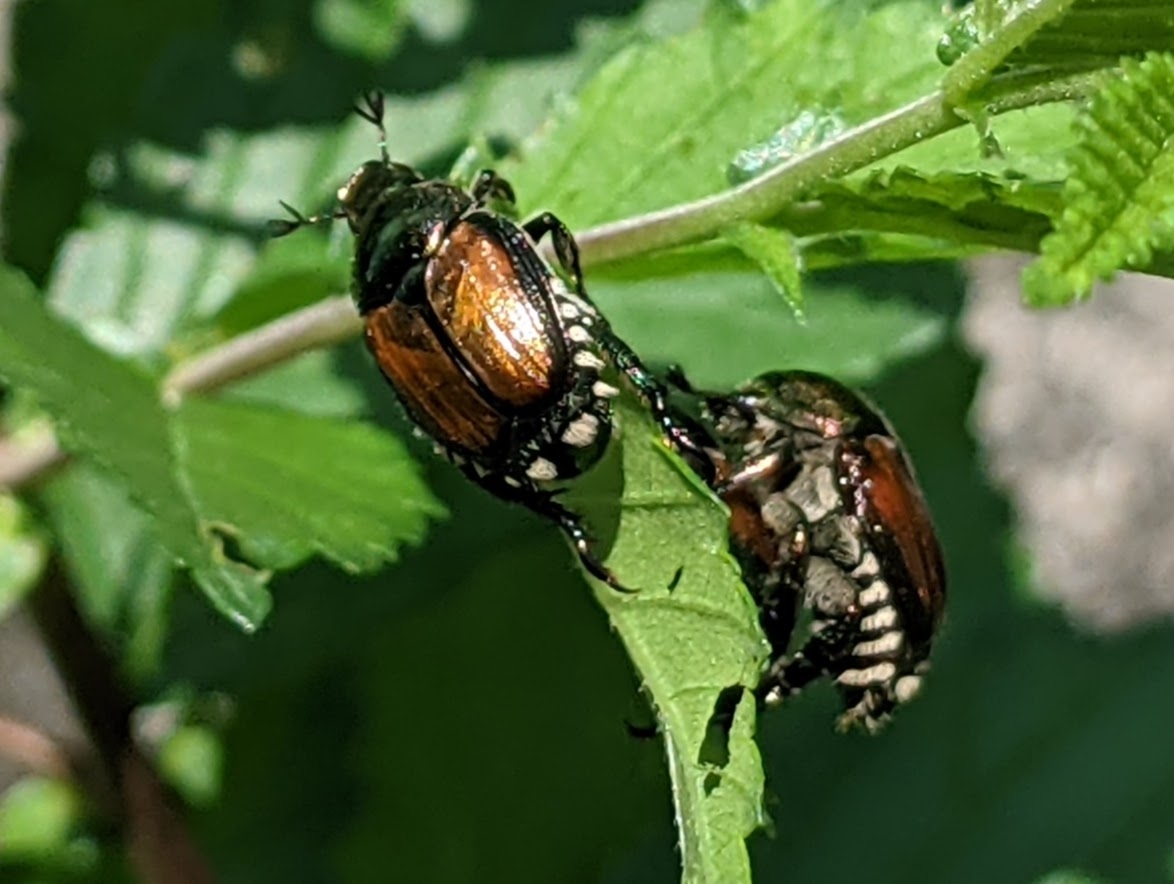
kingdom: Animalia
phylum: Arthropoda
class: Insecta
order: Coleoptera
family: Scarabaeidae
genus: Popillia
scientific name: Popillia japonica
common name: Japanese beetle
